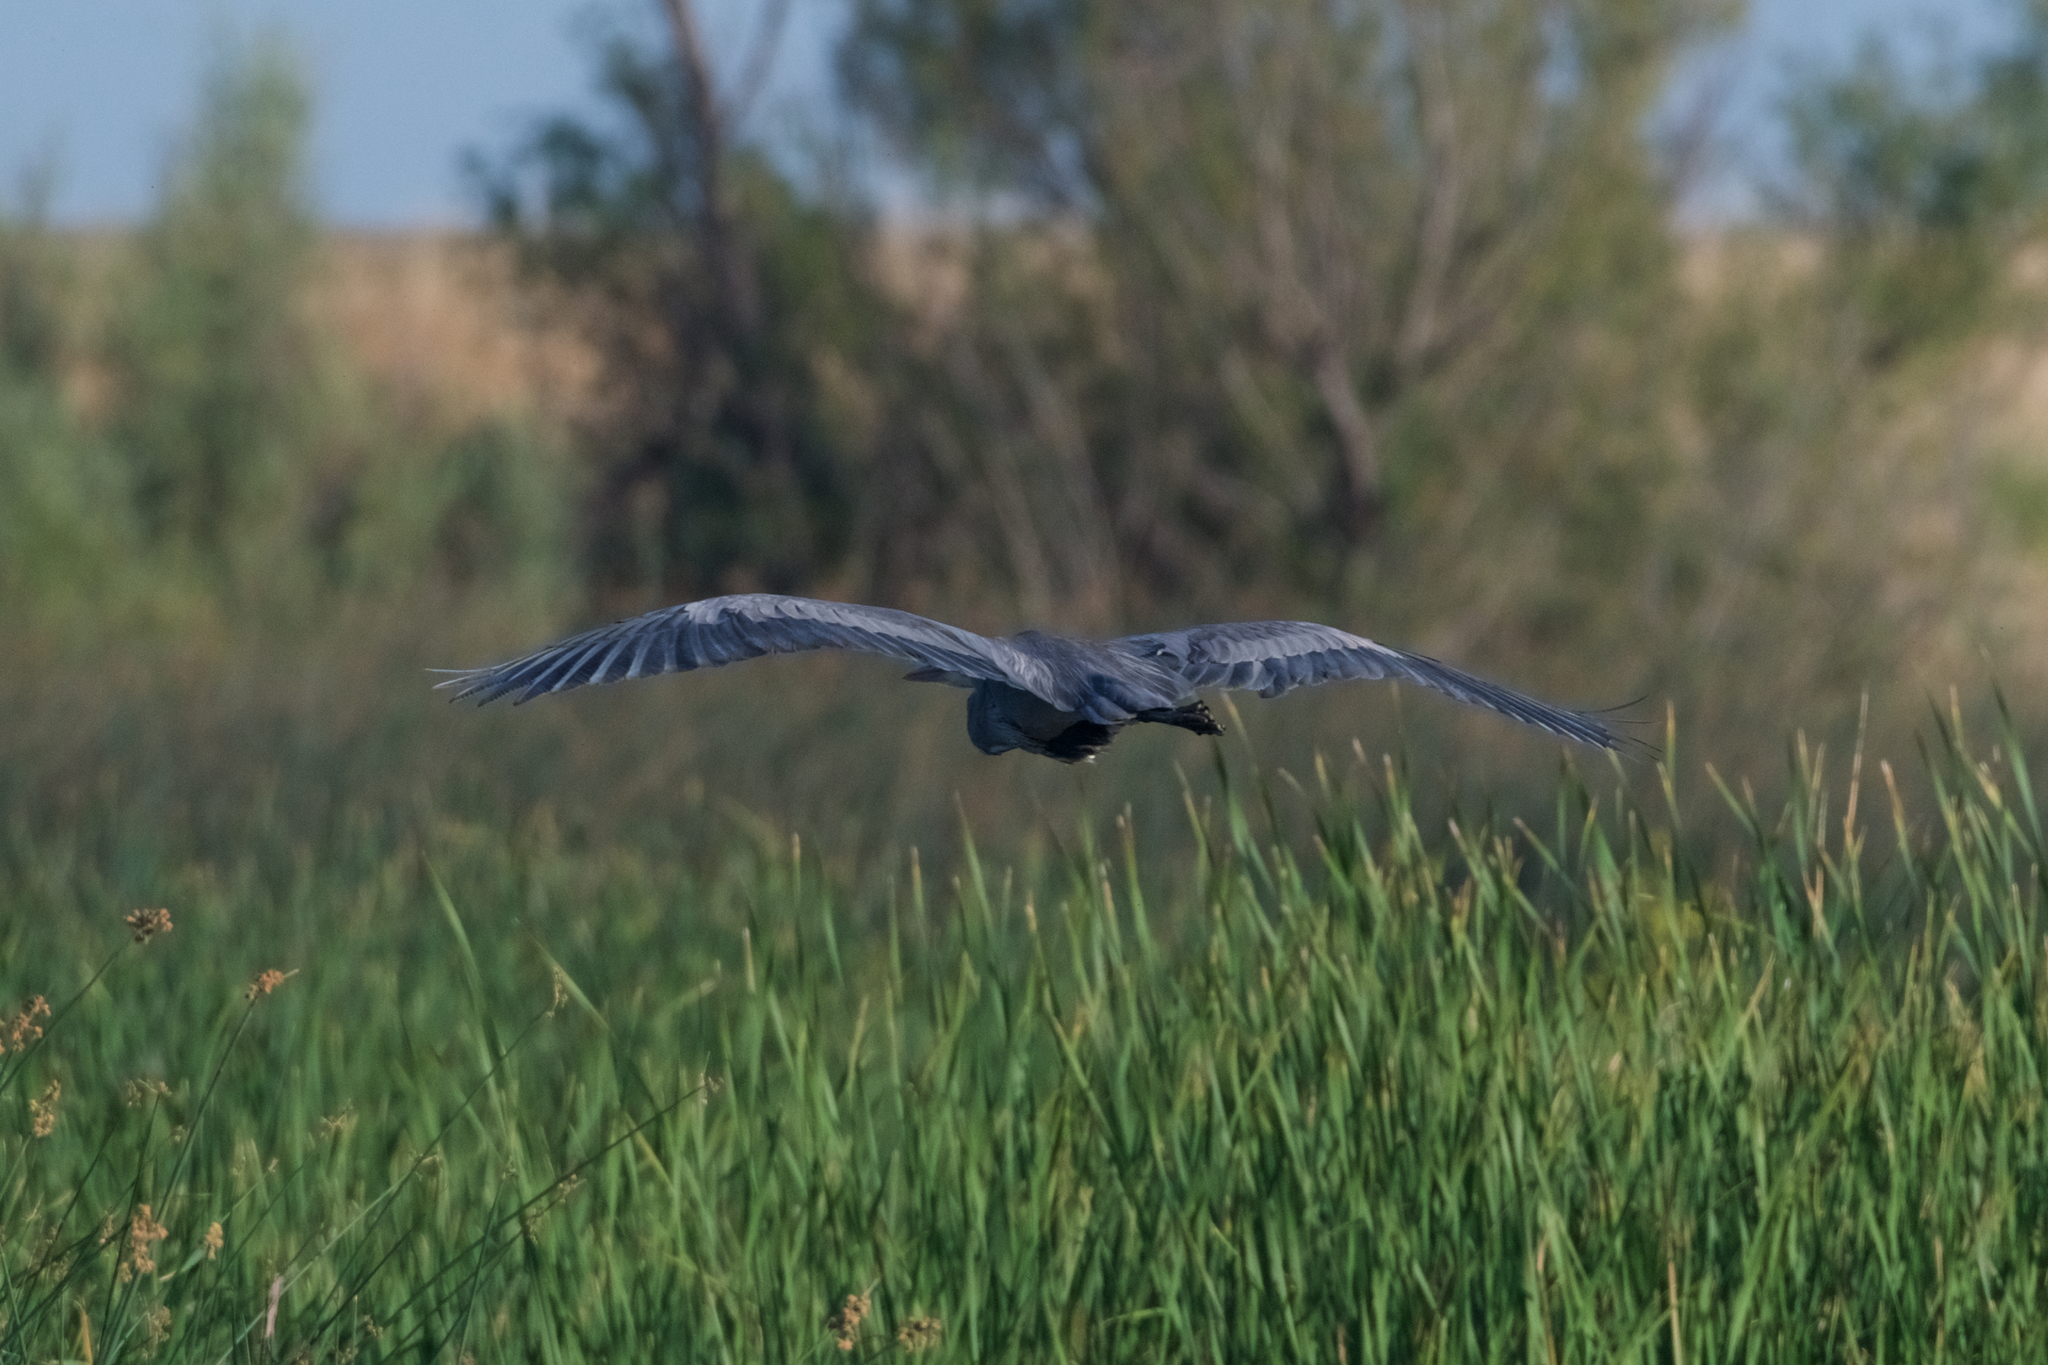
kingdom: Animalia
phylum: Chordata
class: Aves
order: Pelecaniformes
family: Ardeidae
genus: Ardea
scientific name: Ardea herodias
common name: Great blue heron
